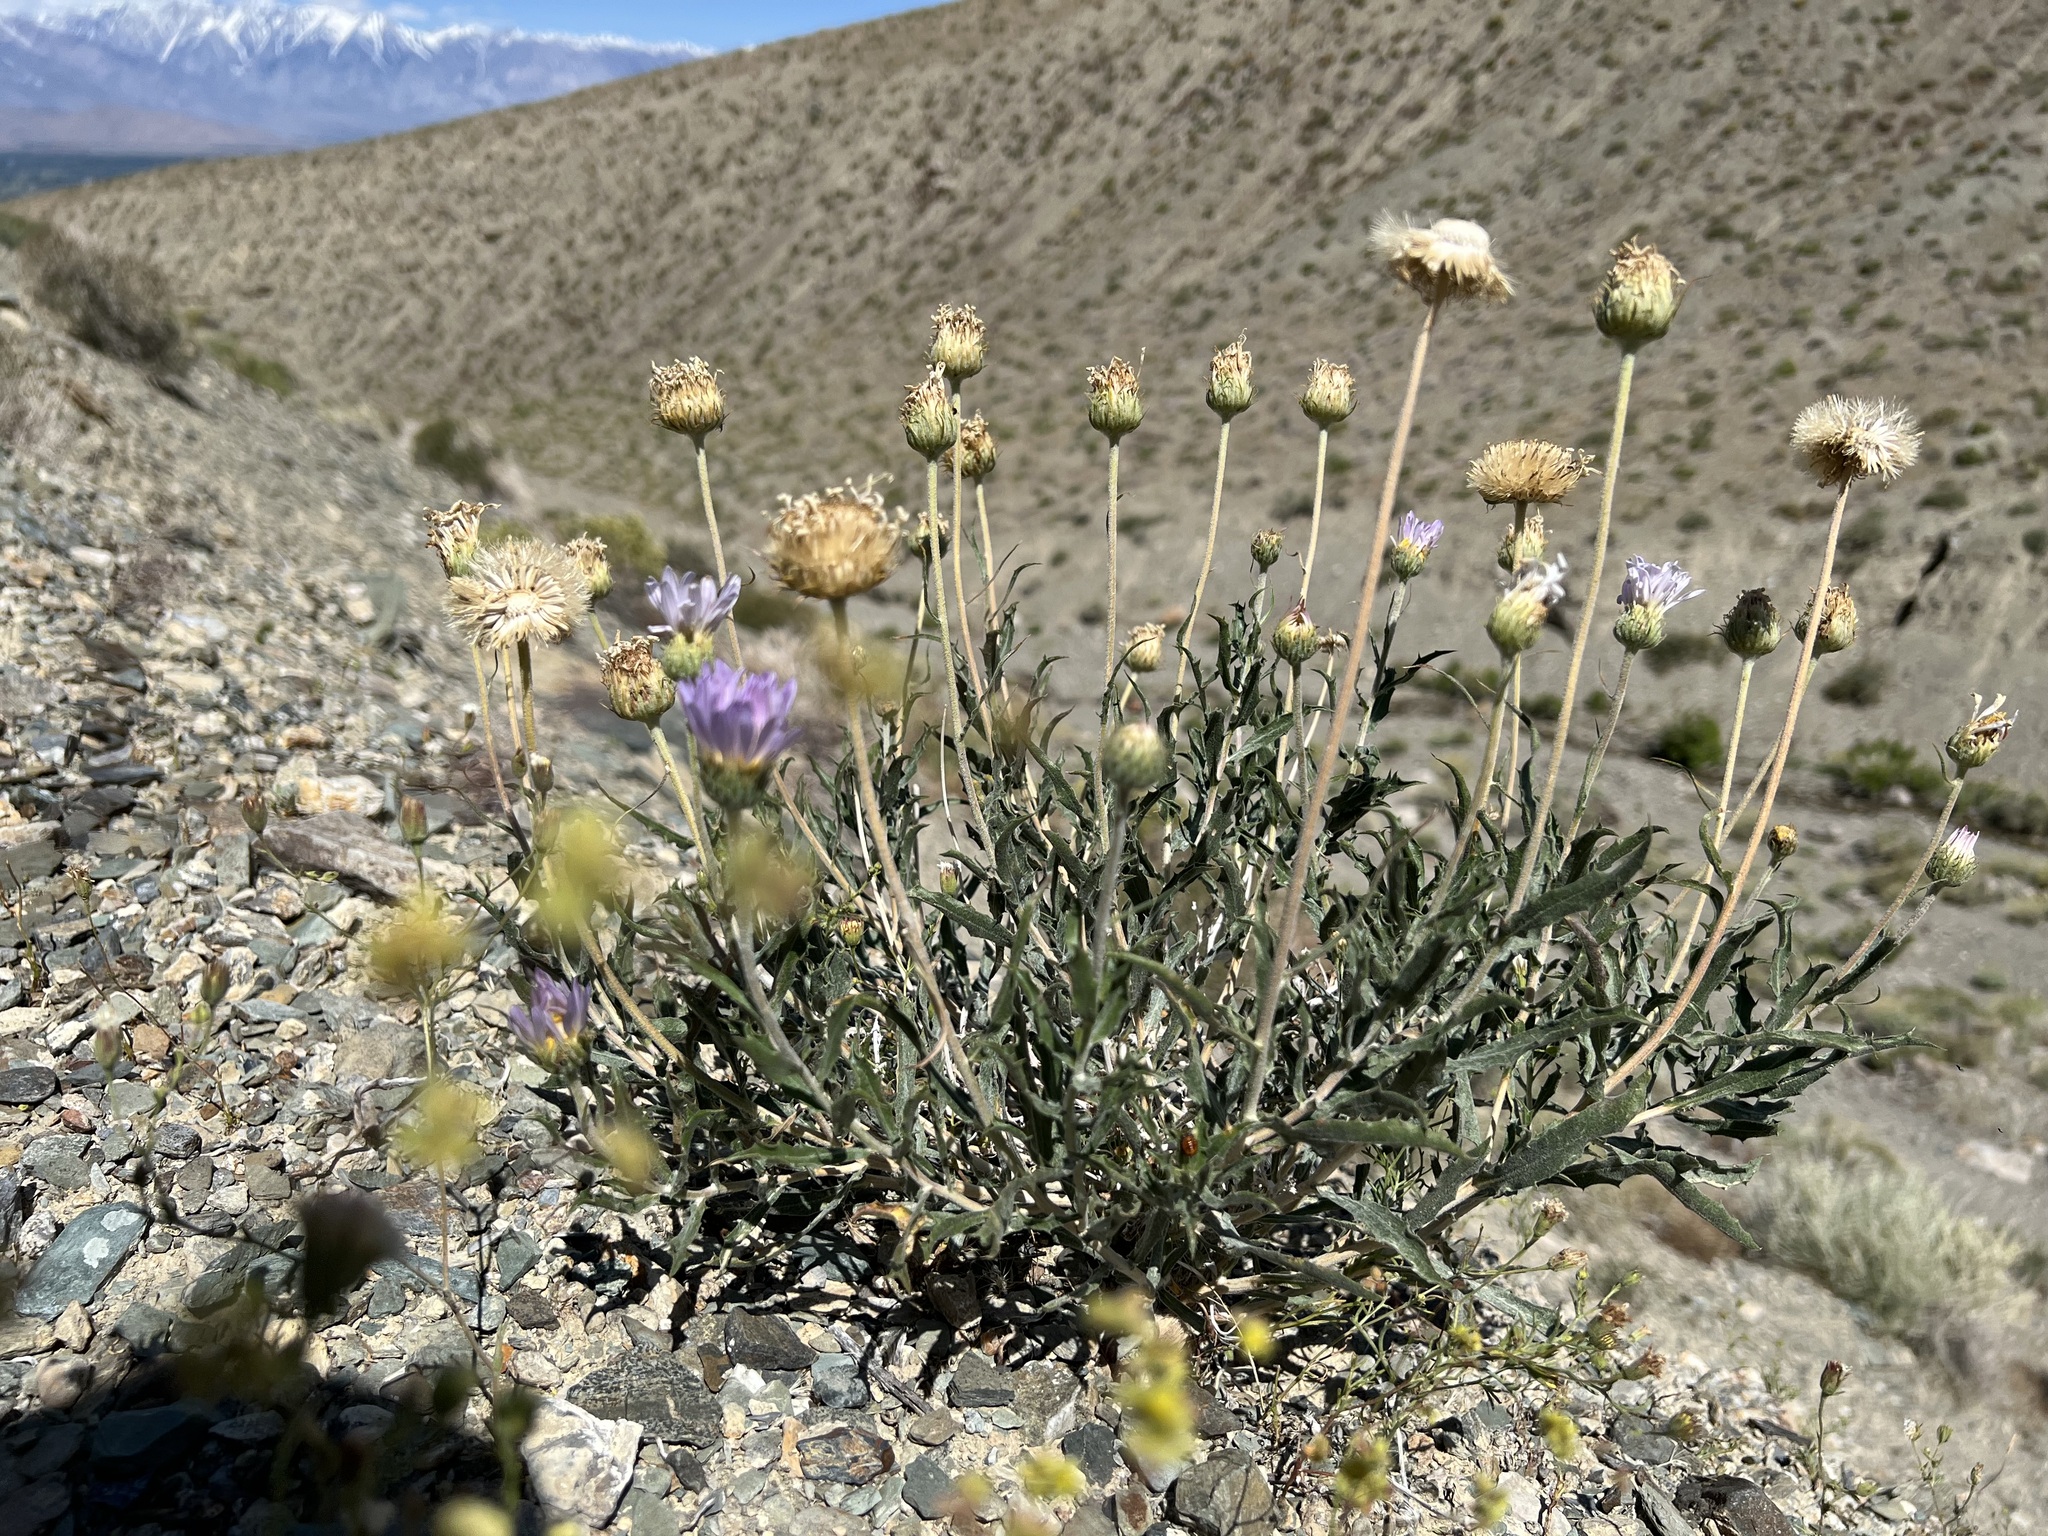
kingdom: Plantae
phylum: Tracheophyta
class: Magnoliopsida
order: Asterales
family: Asteraceae
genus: Xylorhiza
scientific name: Xylorhiza tortifolia
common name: Hurt-leaf woody-aster
